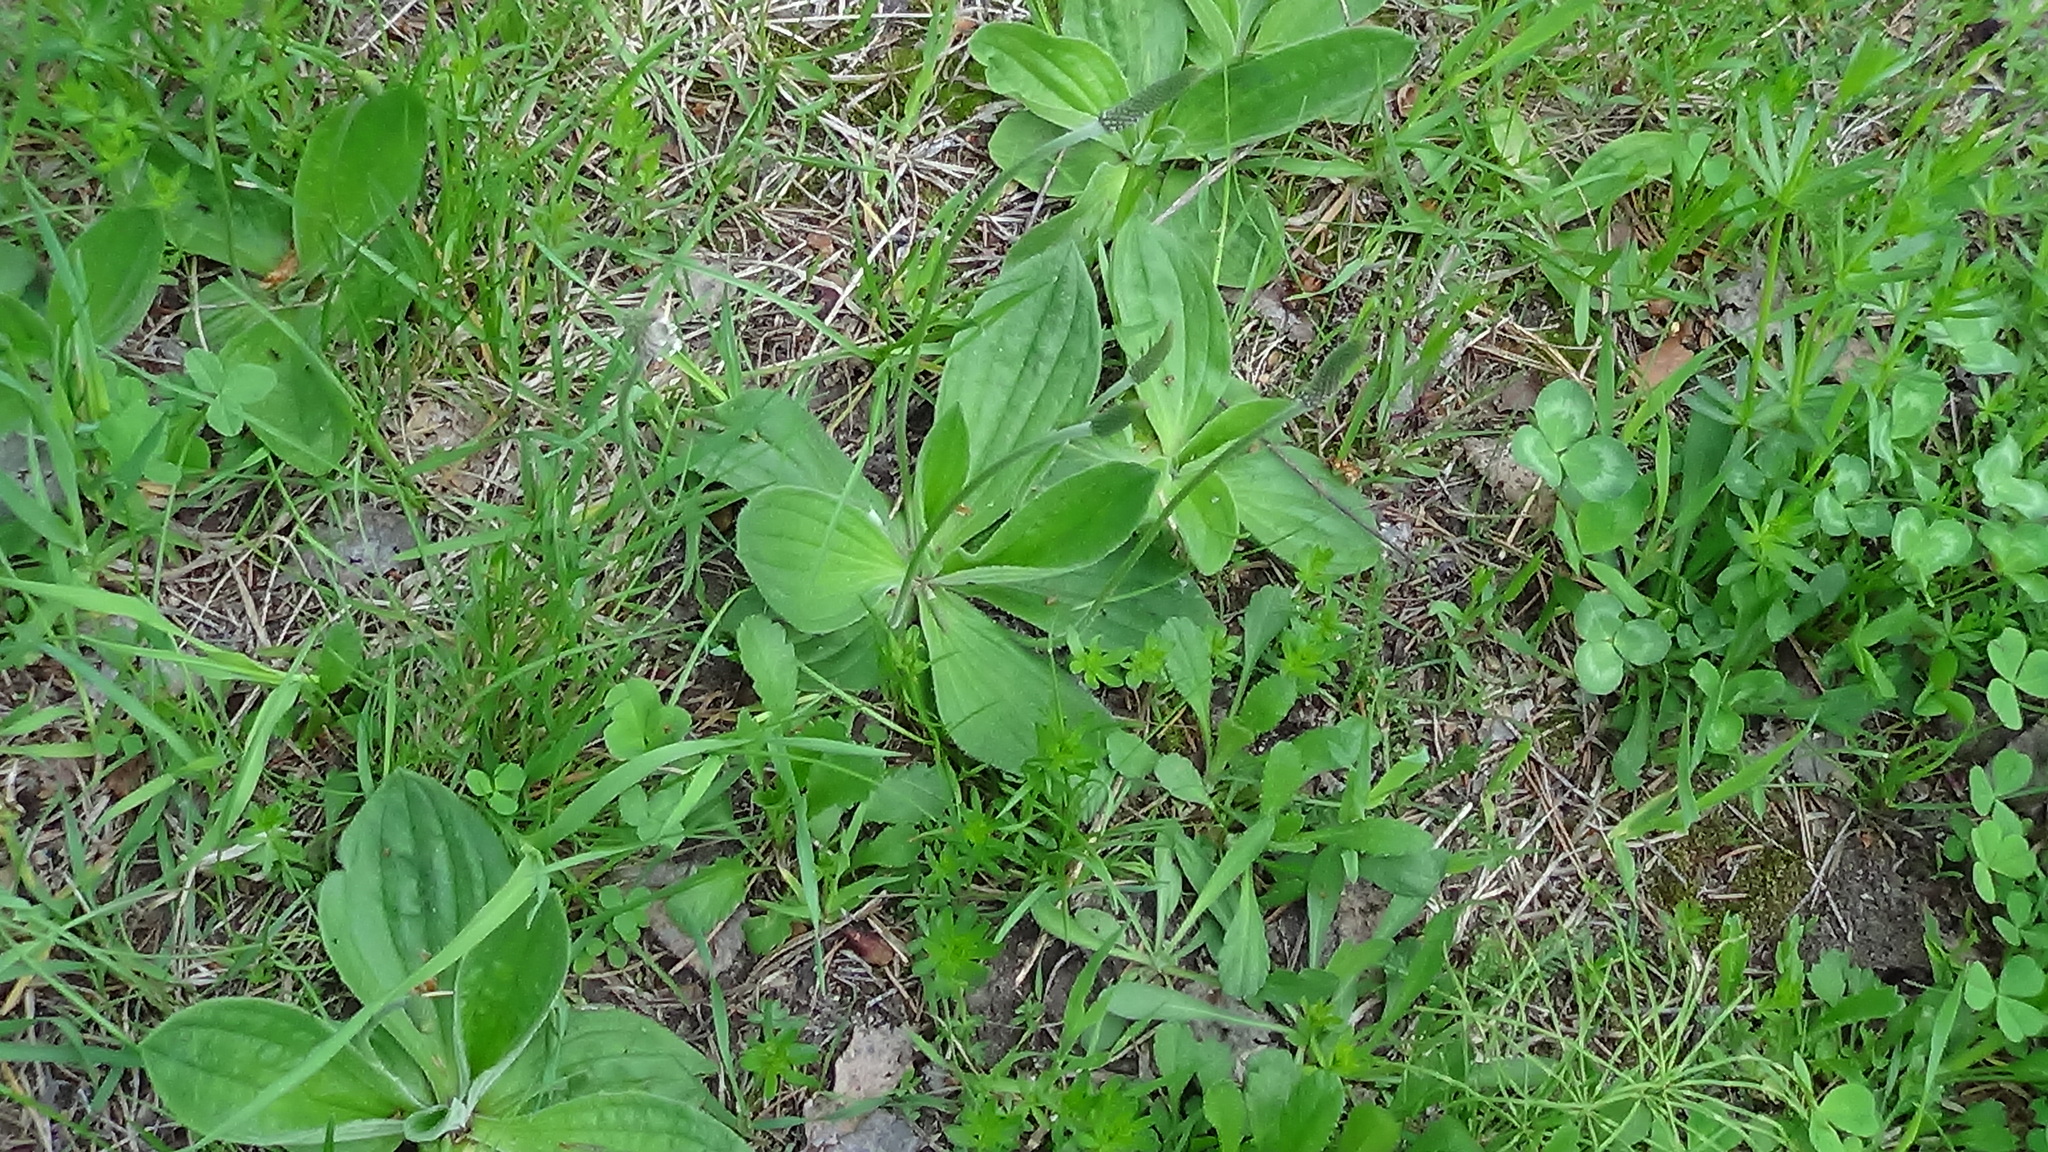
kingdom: Plantae
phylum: Tracheophyta
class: Magnoliopsida
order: Lamiales
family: Plantaginaceae
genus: Plantago
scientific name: Plantago media
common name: Hoary plantain
